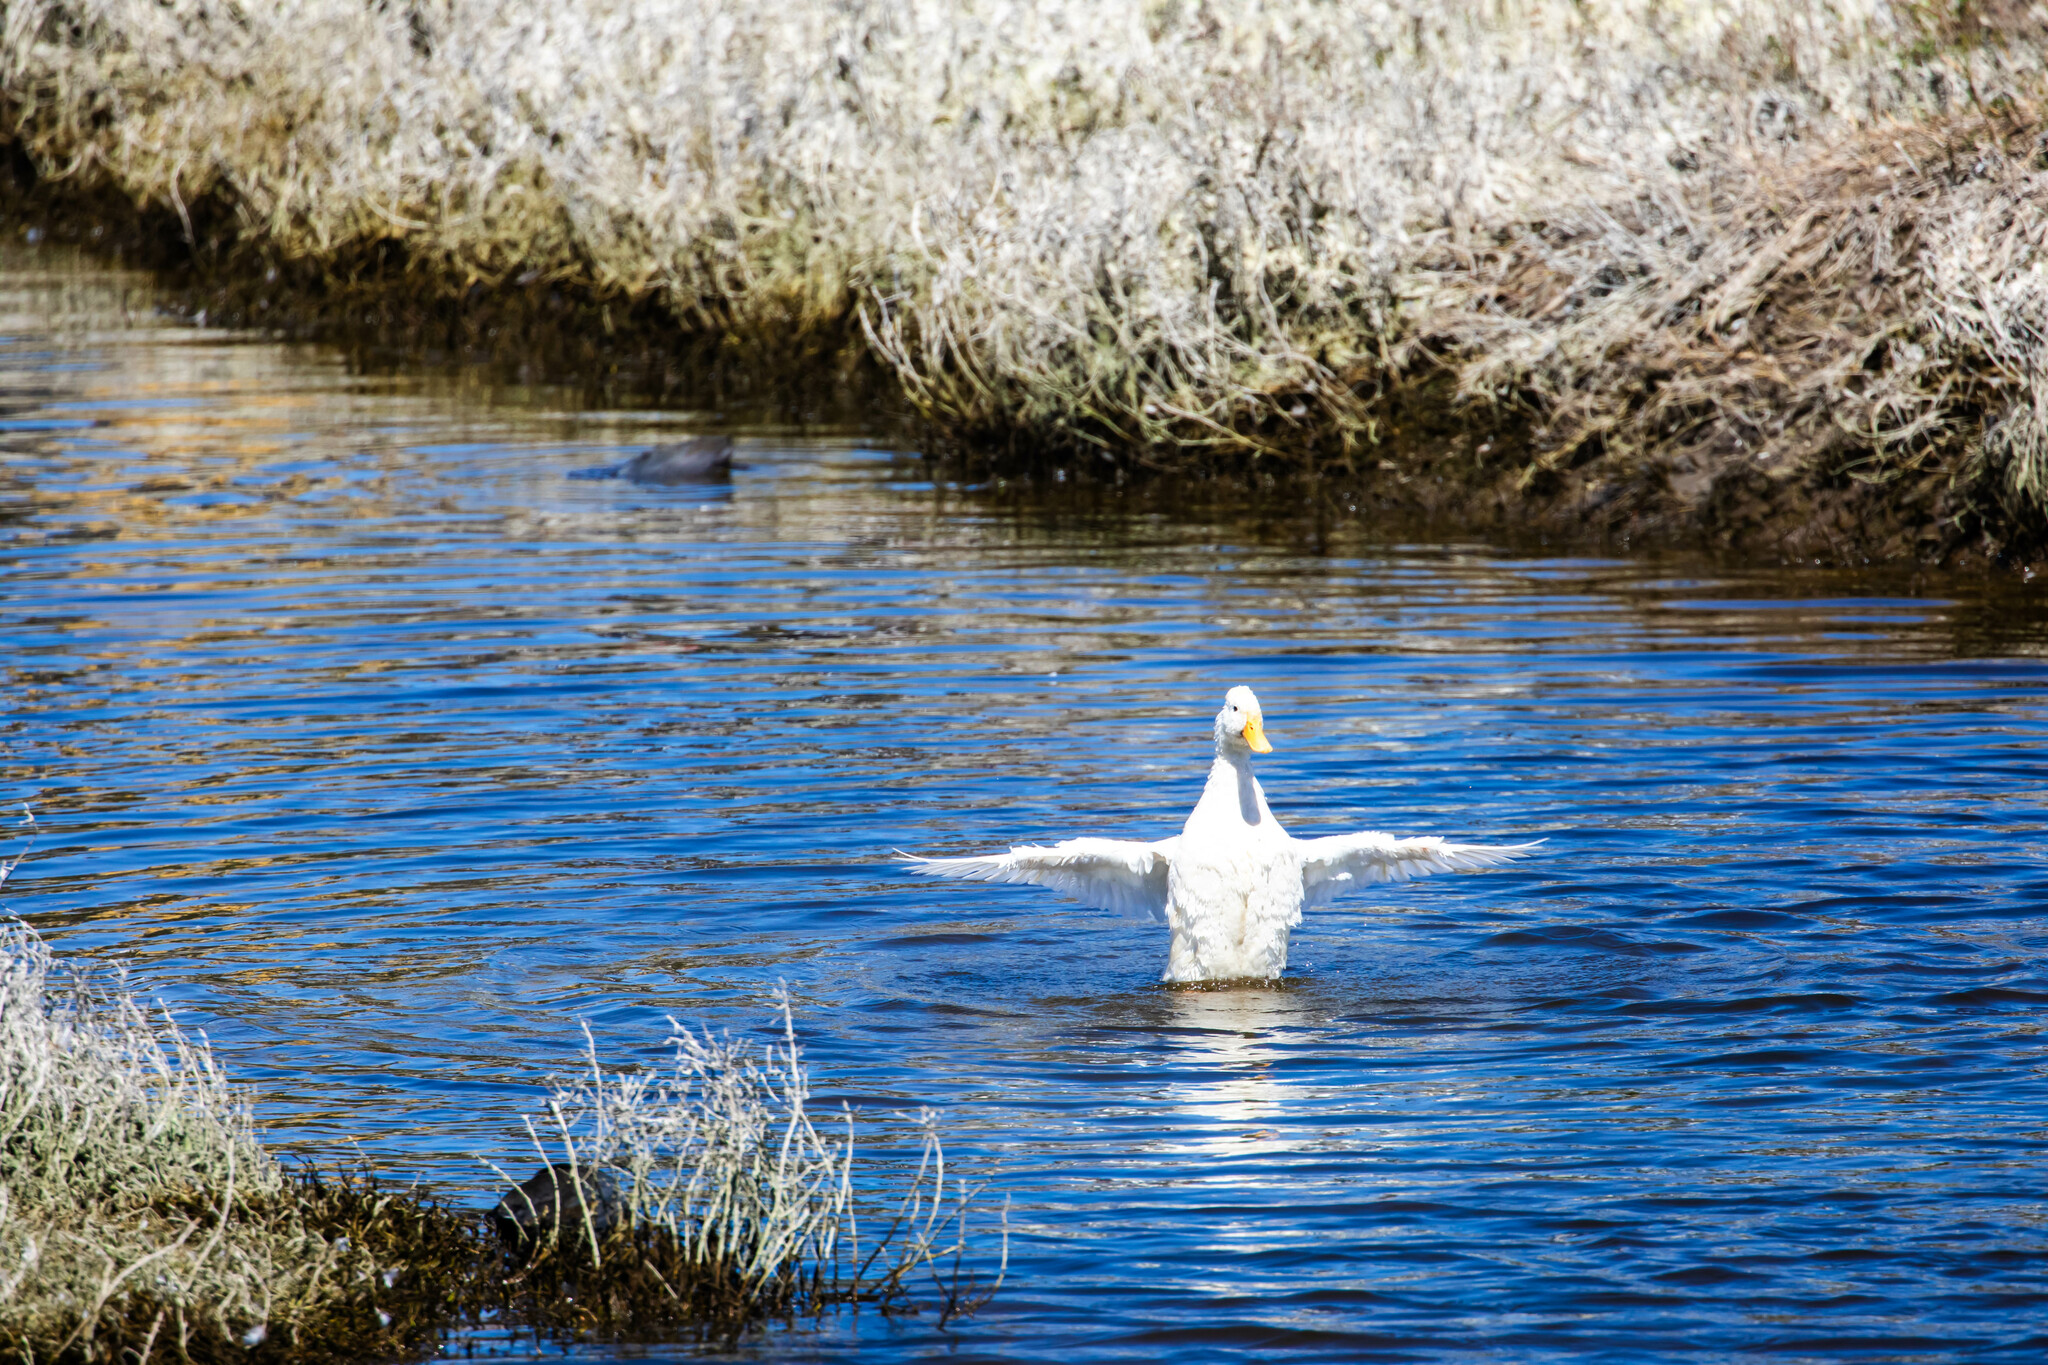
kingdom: Animalia
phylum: Chordata
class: Aves
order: Anseriformes
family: Anatidae
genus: Anas
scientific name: Anas platyrhynchos
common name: Mallard
